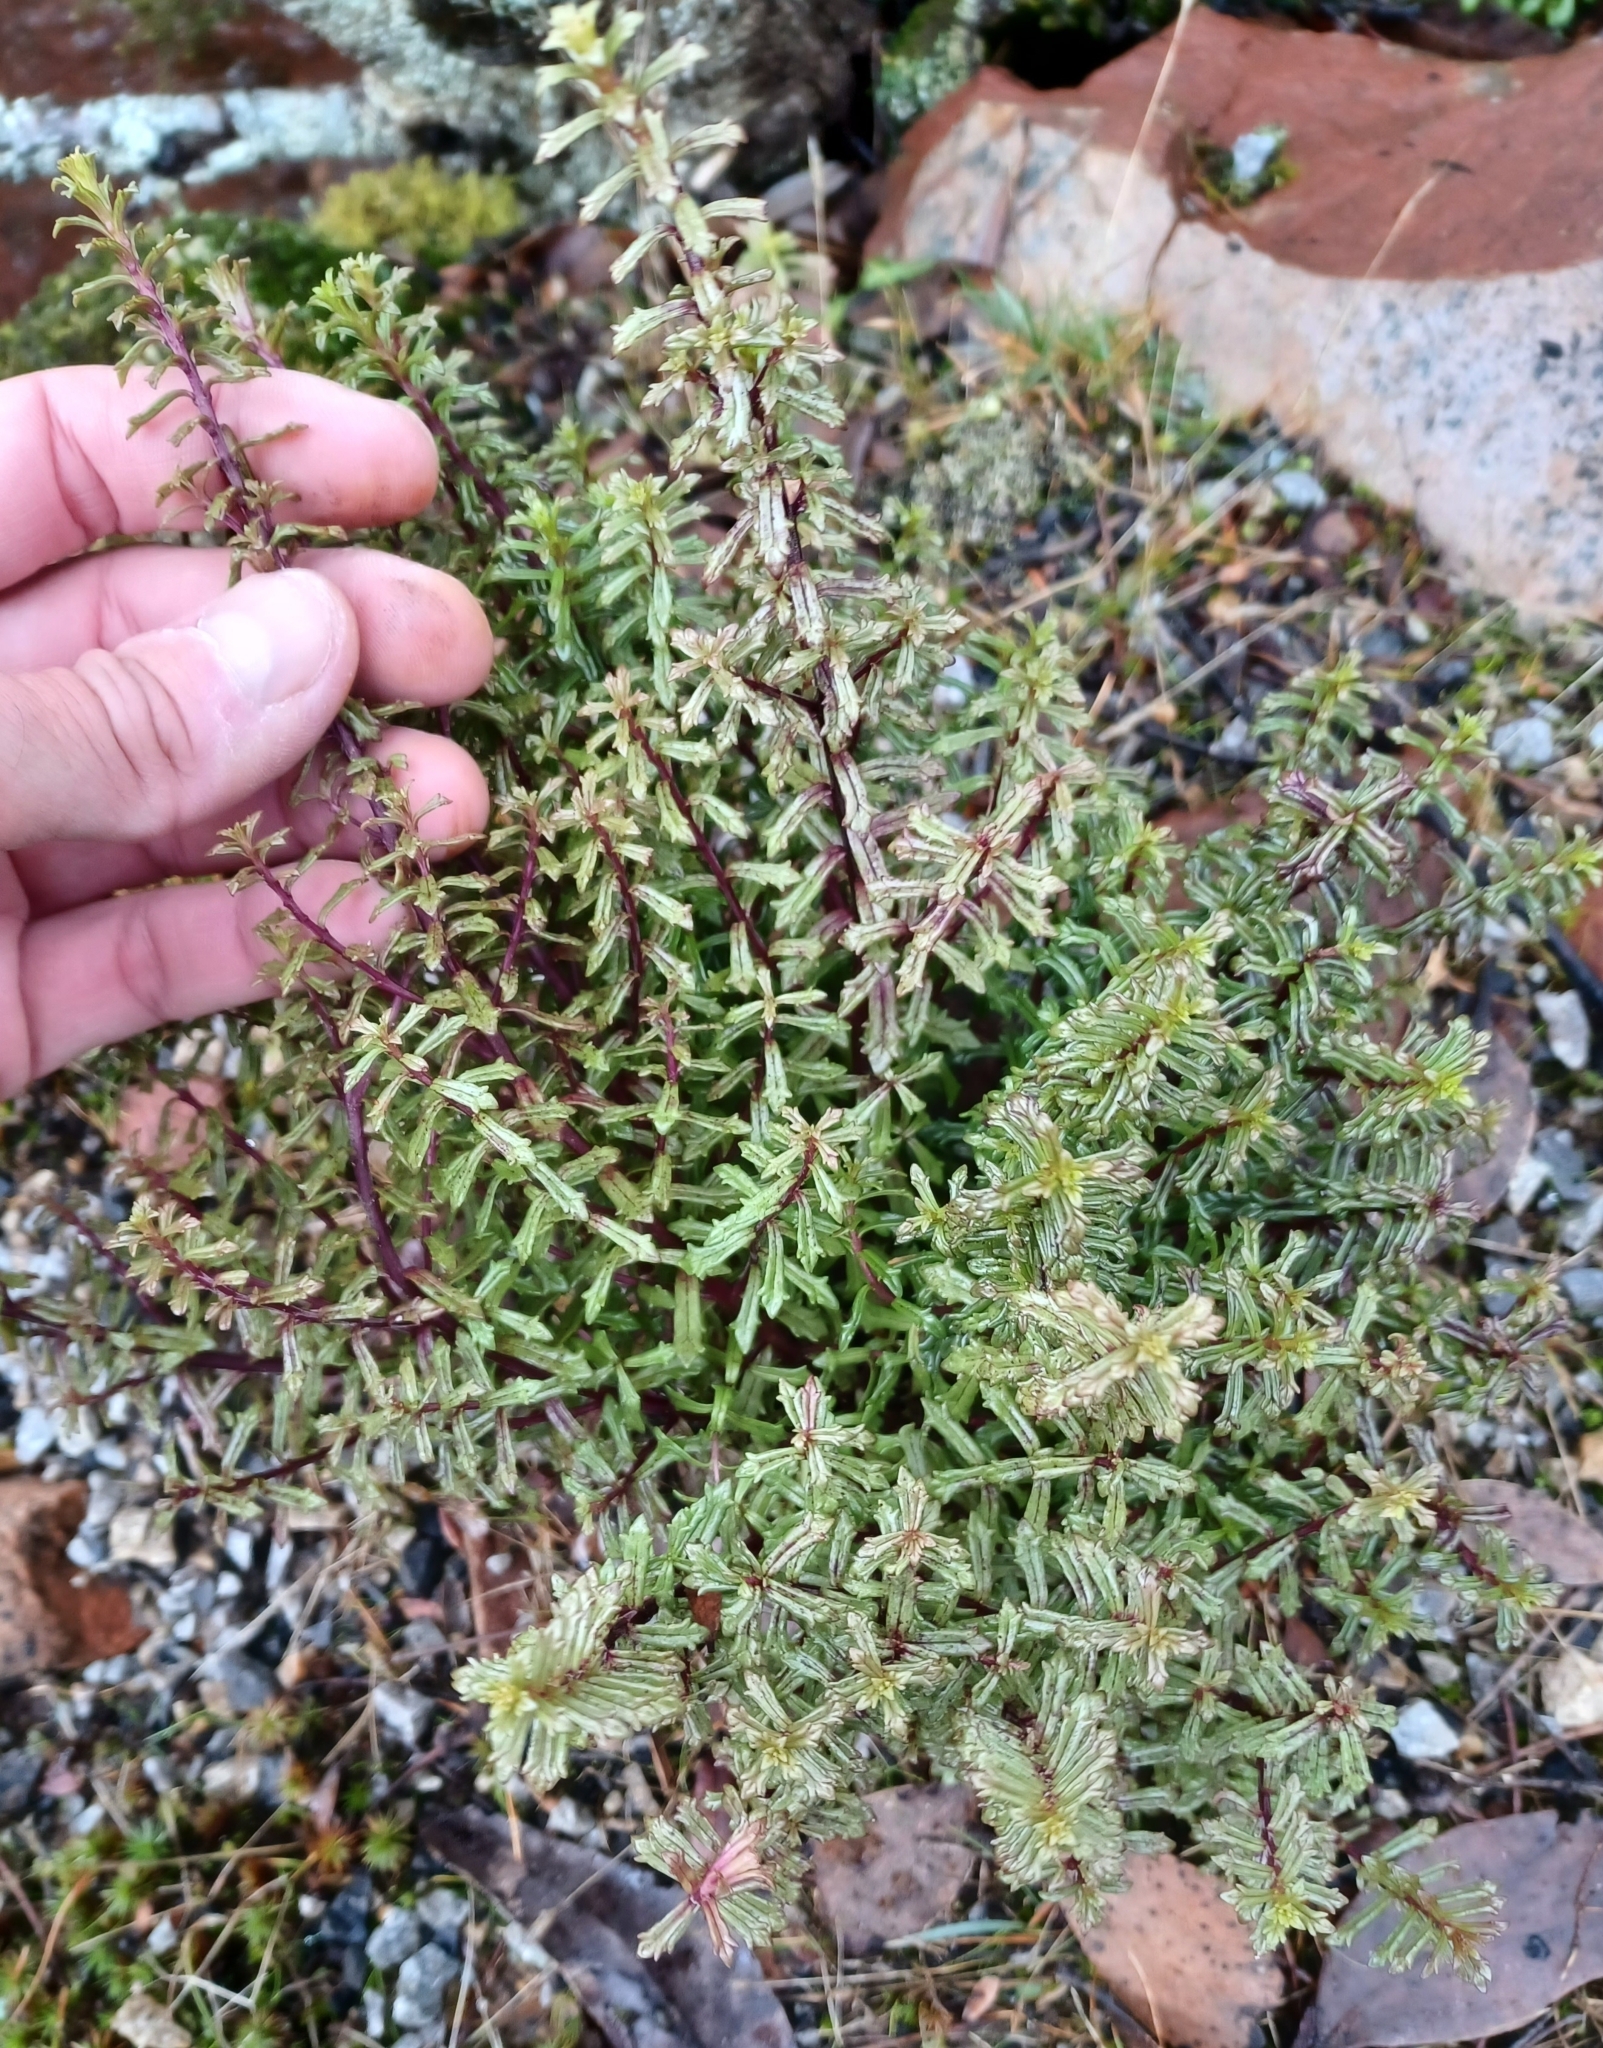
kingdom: Plantae
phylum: Tracheophyta
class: Magnoliopsida
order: Lamiales
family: Orobanchaceae
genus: Euphrasia
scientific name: Euphrasia collina
